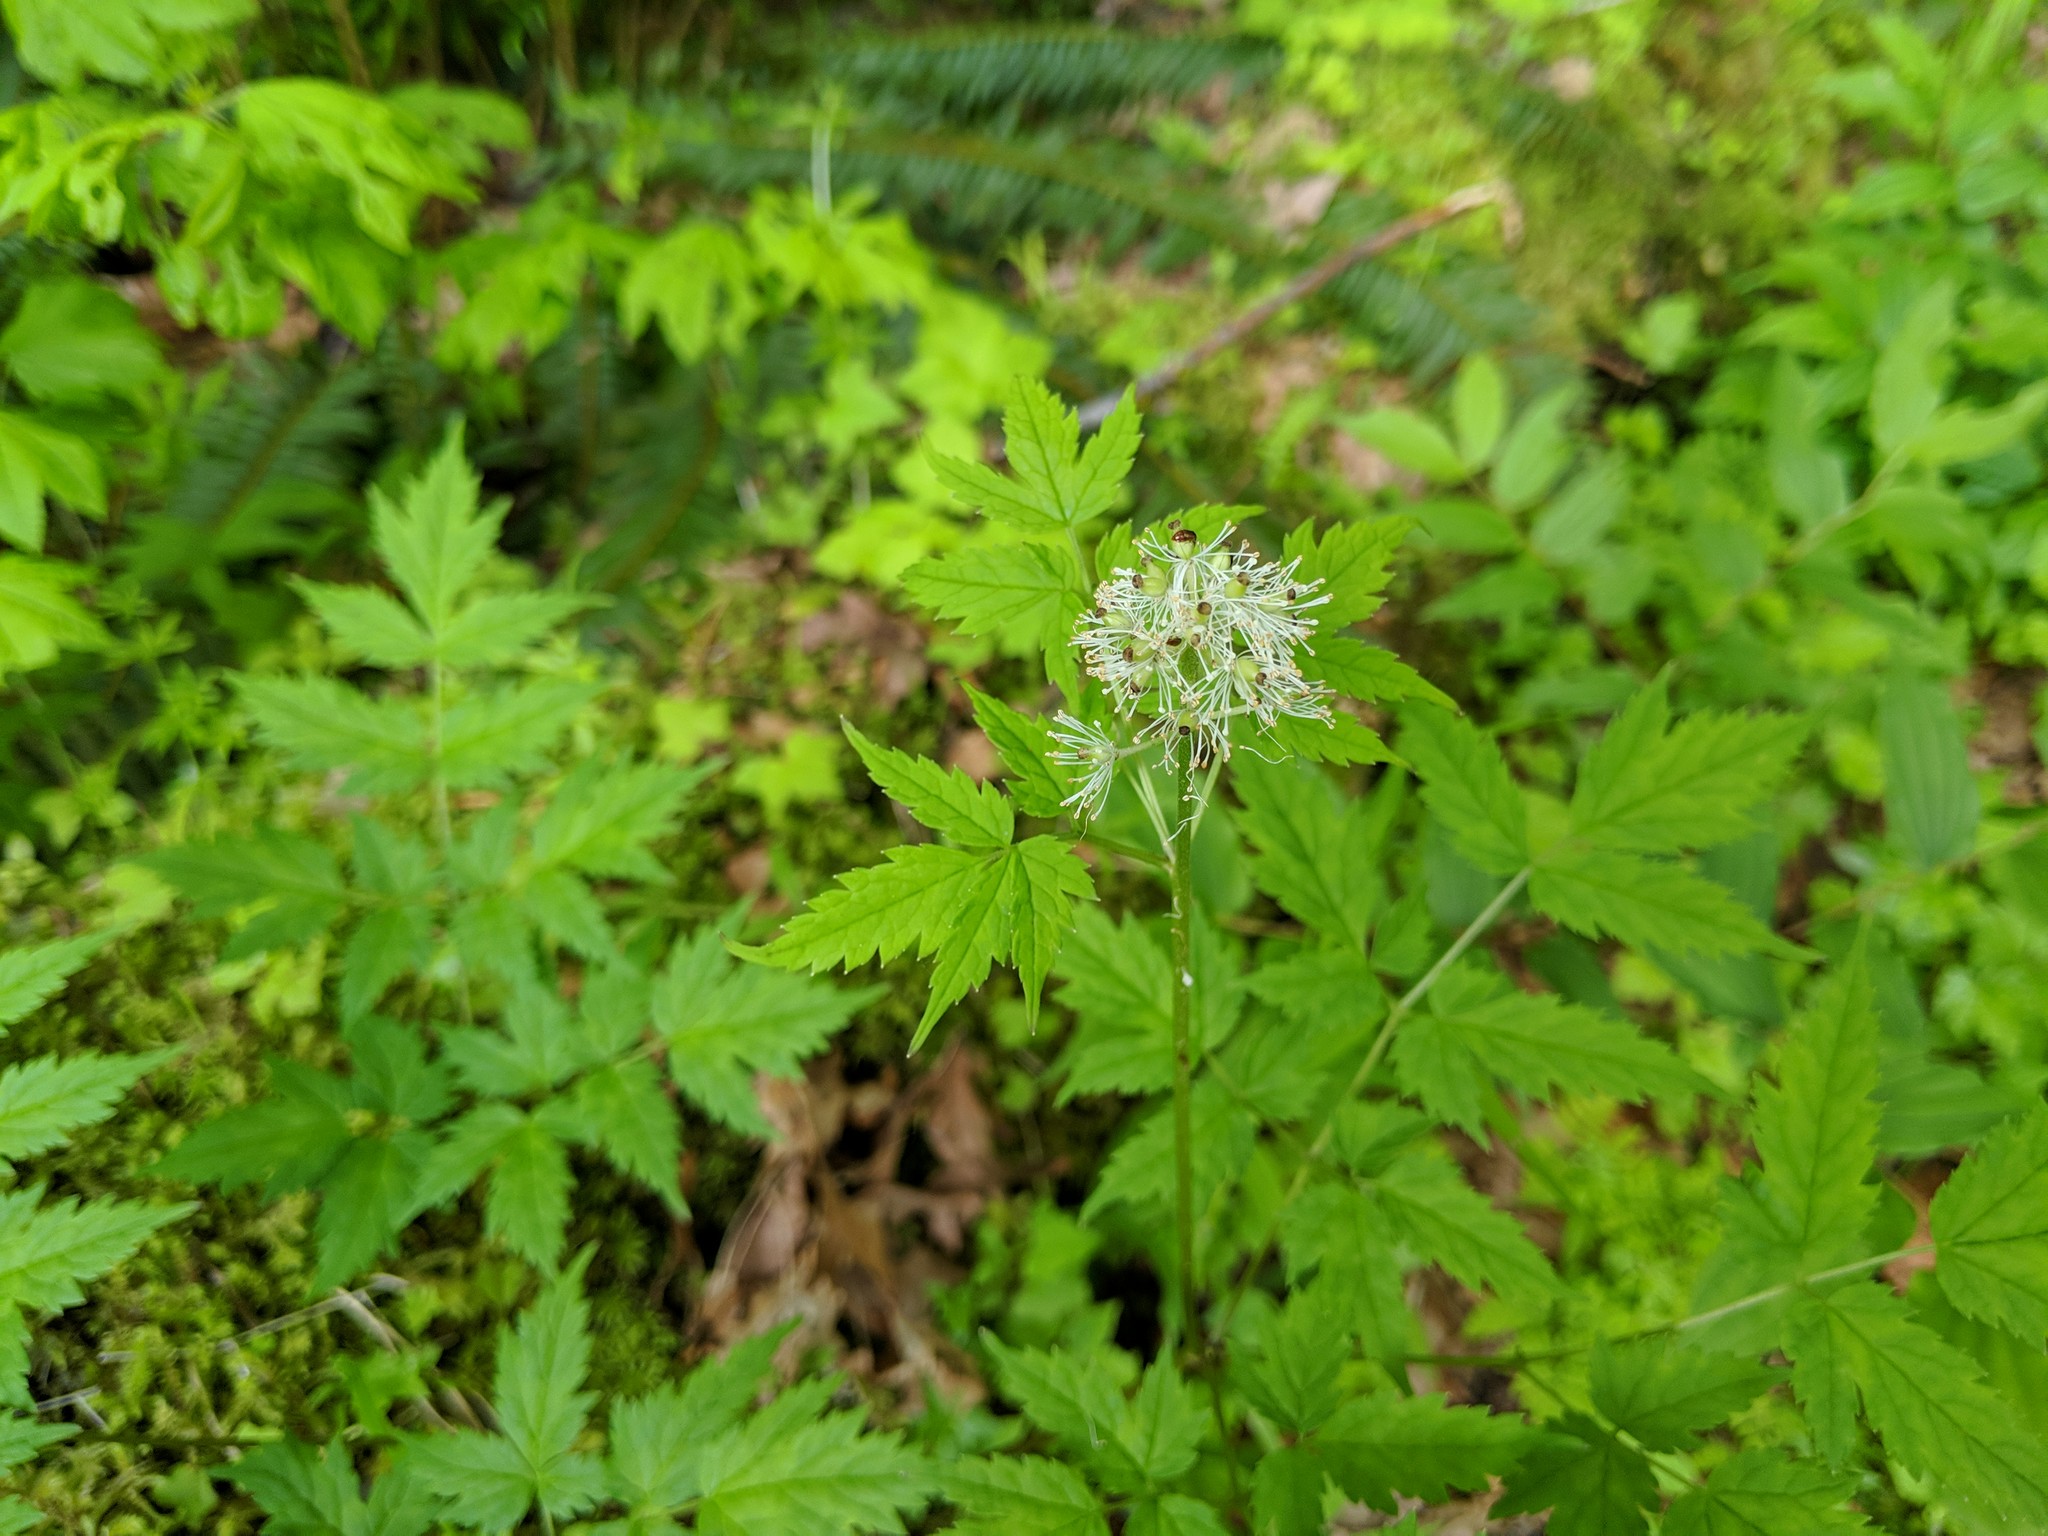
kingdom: Plantae
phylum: Tracheophyta
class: Magnoliopsida
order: Ranunculales
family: Ranunculaceae
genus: Actaea
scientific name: Actaea rubra
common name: Red baneberry
